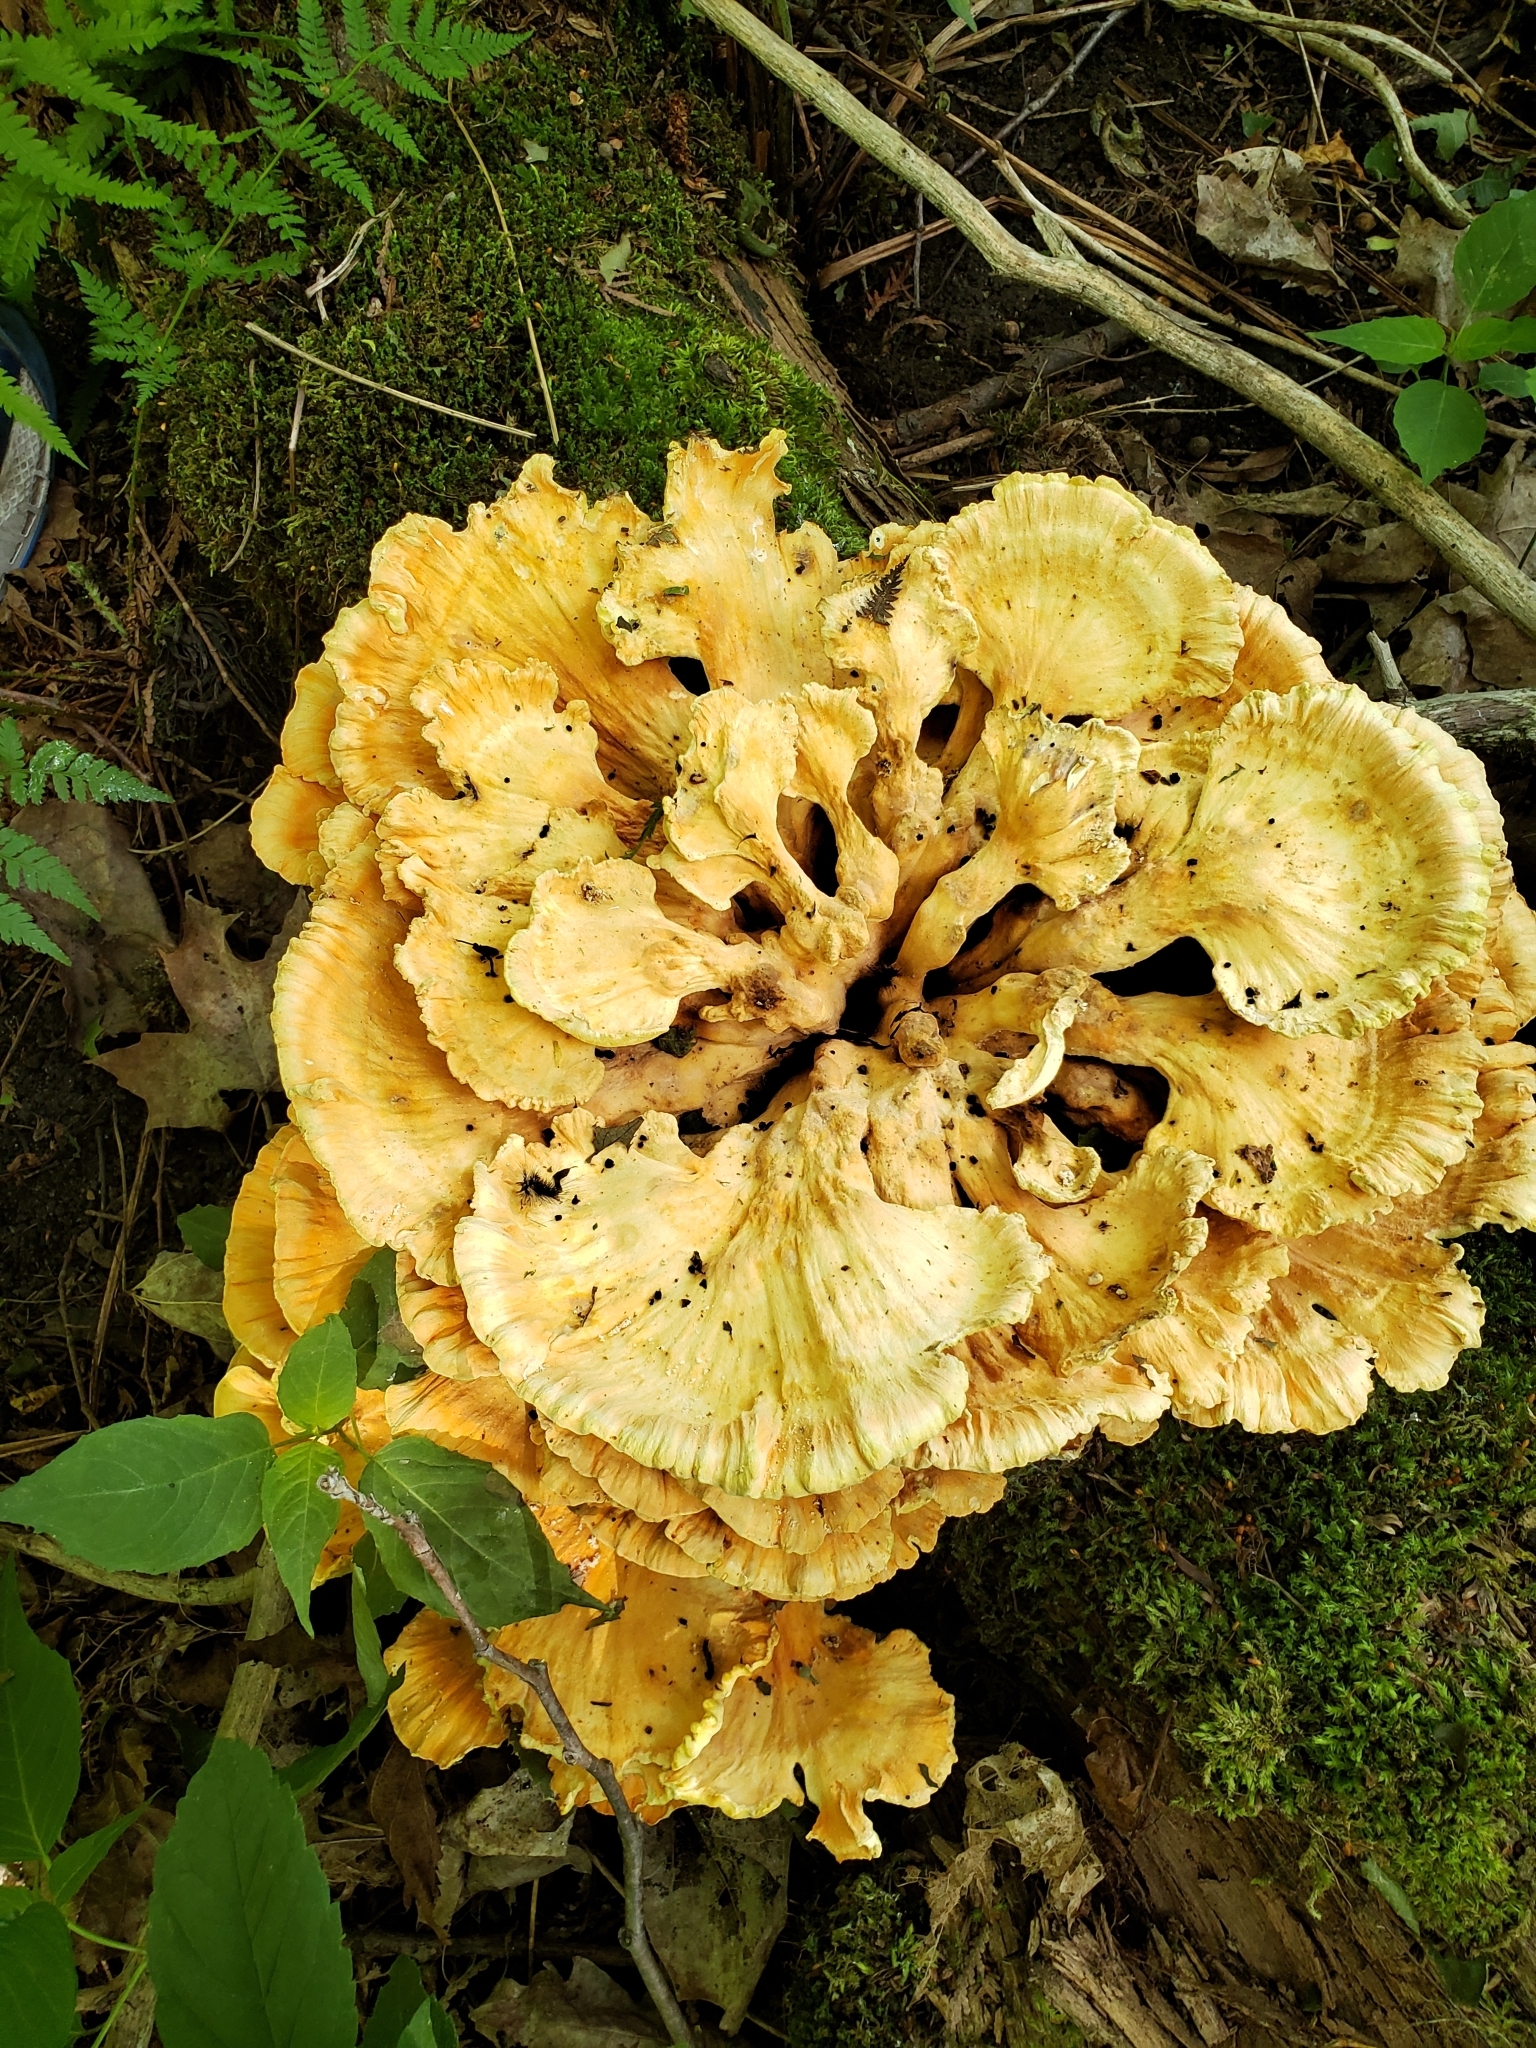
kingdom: Fungi
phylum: Basidiomycota
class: Agaricomycetes
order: Polyporales
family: Laetiporaceae
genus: Laetiporus
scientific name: Laetiporus sulphureus
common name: Chicken of the woods
